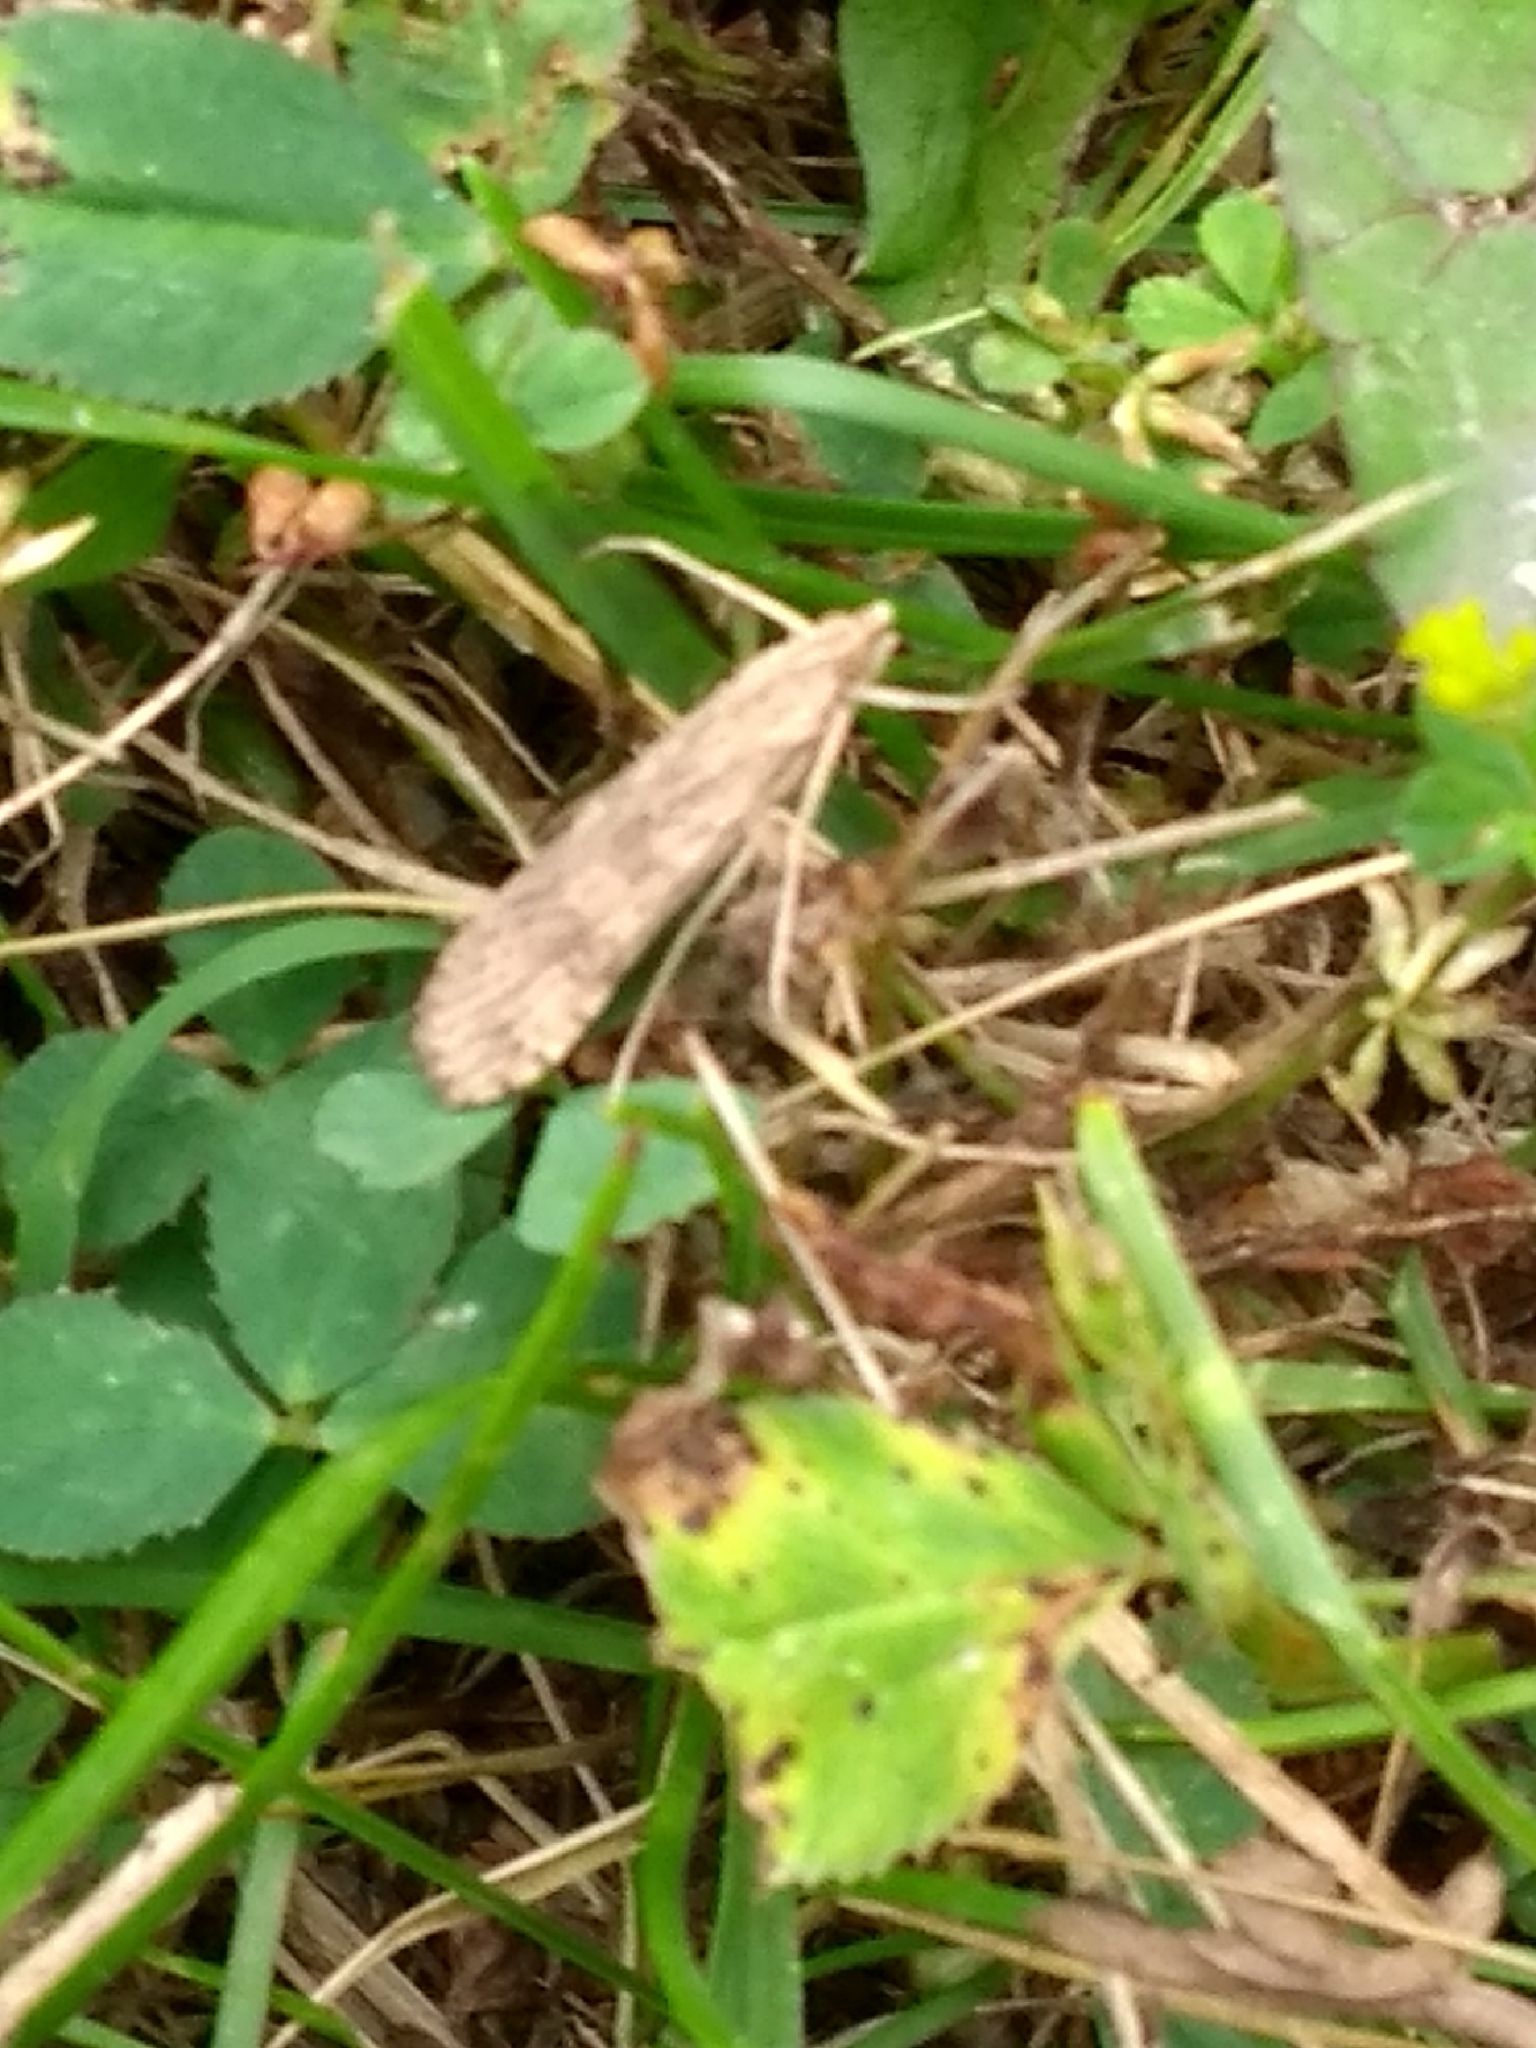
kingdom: Animalia
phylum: Arthropoda
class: Insecta
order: Lepidoptera
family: Crambidae
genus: Nomophila
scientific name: Nomophila nearctica
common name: American rush veneer
